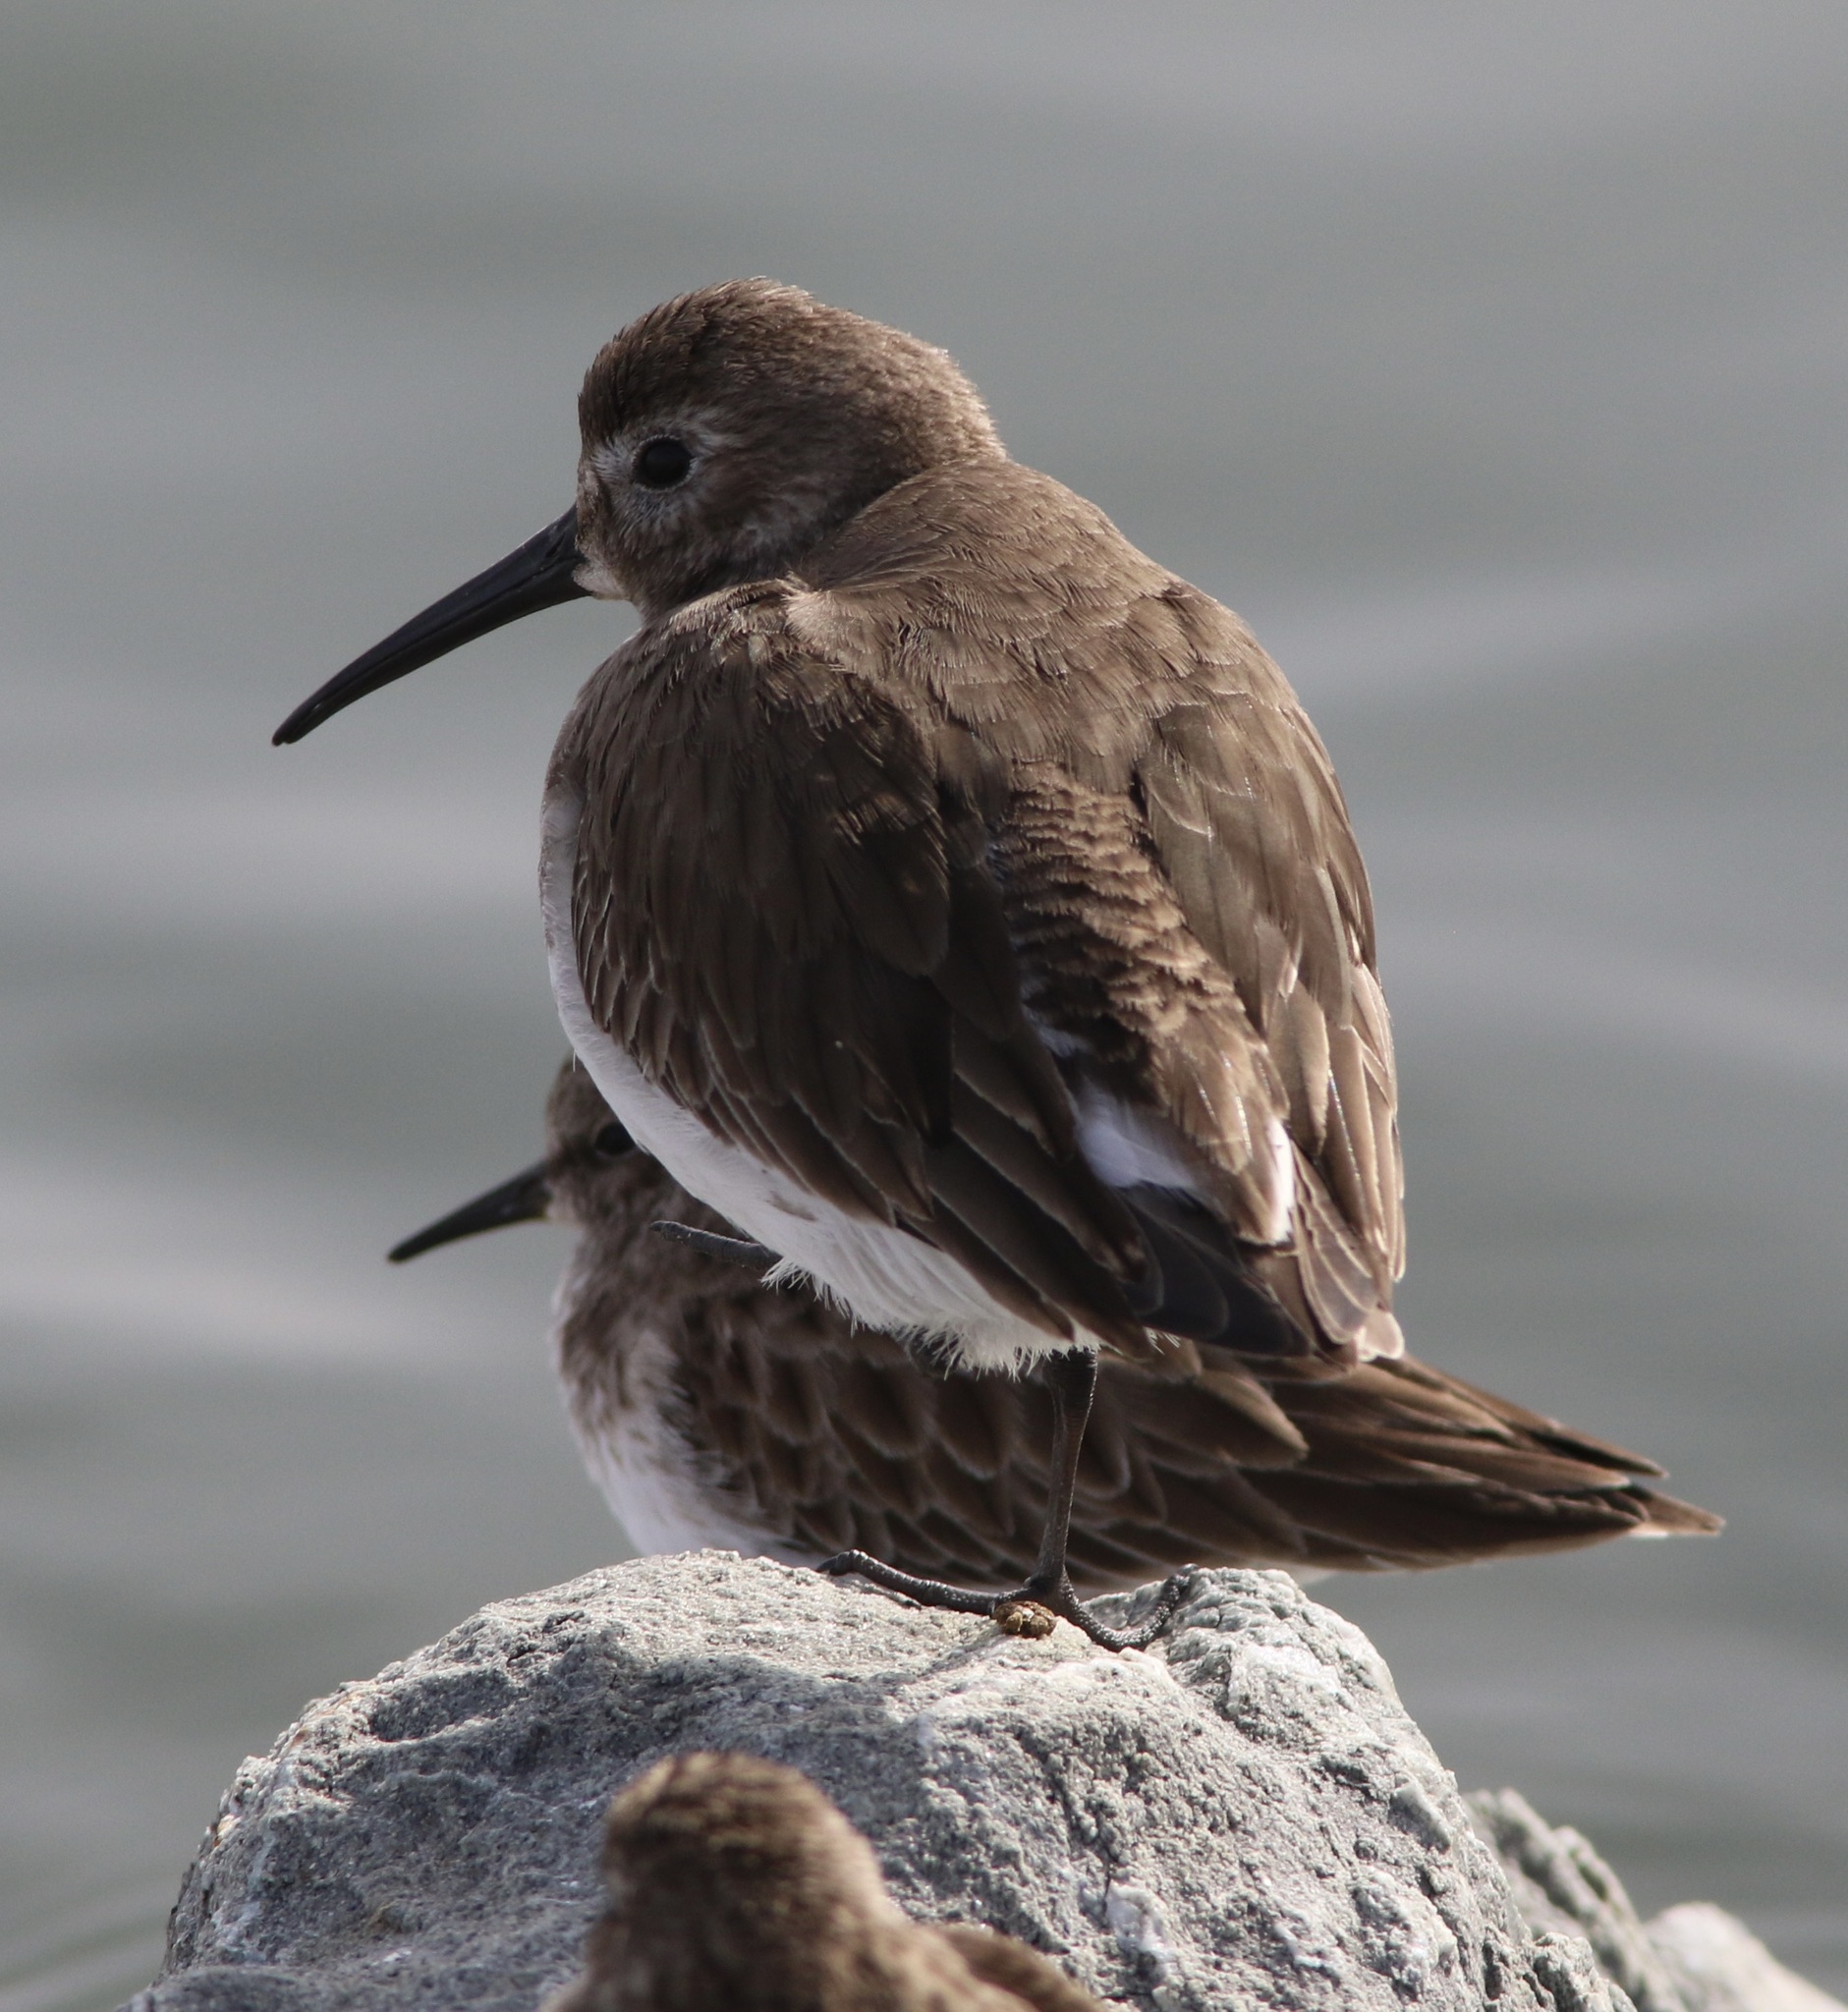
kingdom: Animalia
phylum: Chordata
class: Aves
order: Charadriiformes
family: Scolopacidae
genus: Calidris
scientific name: Calidris alpina
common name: Dunlin
